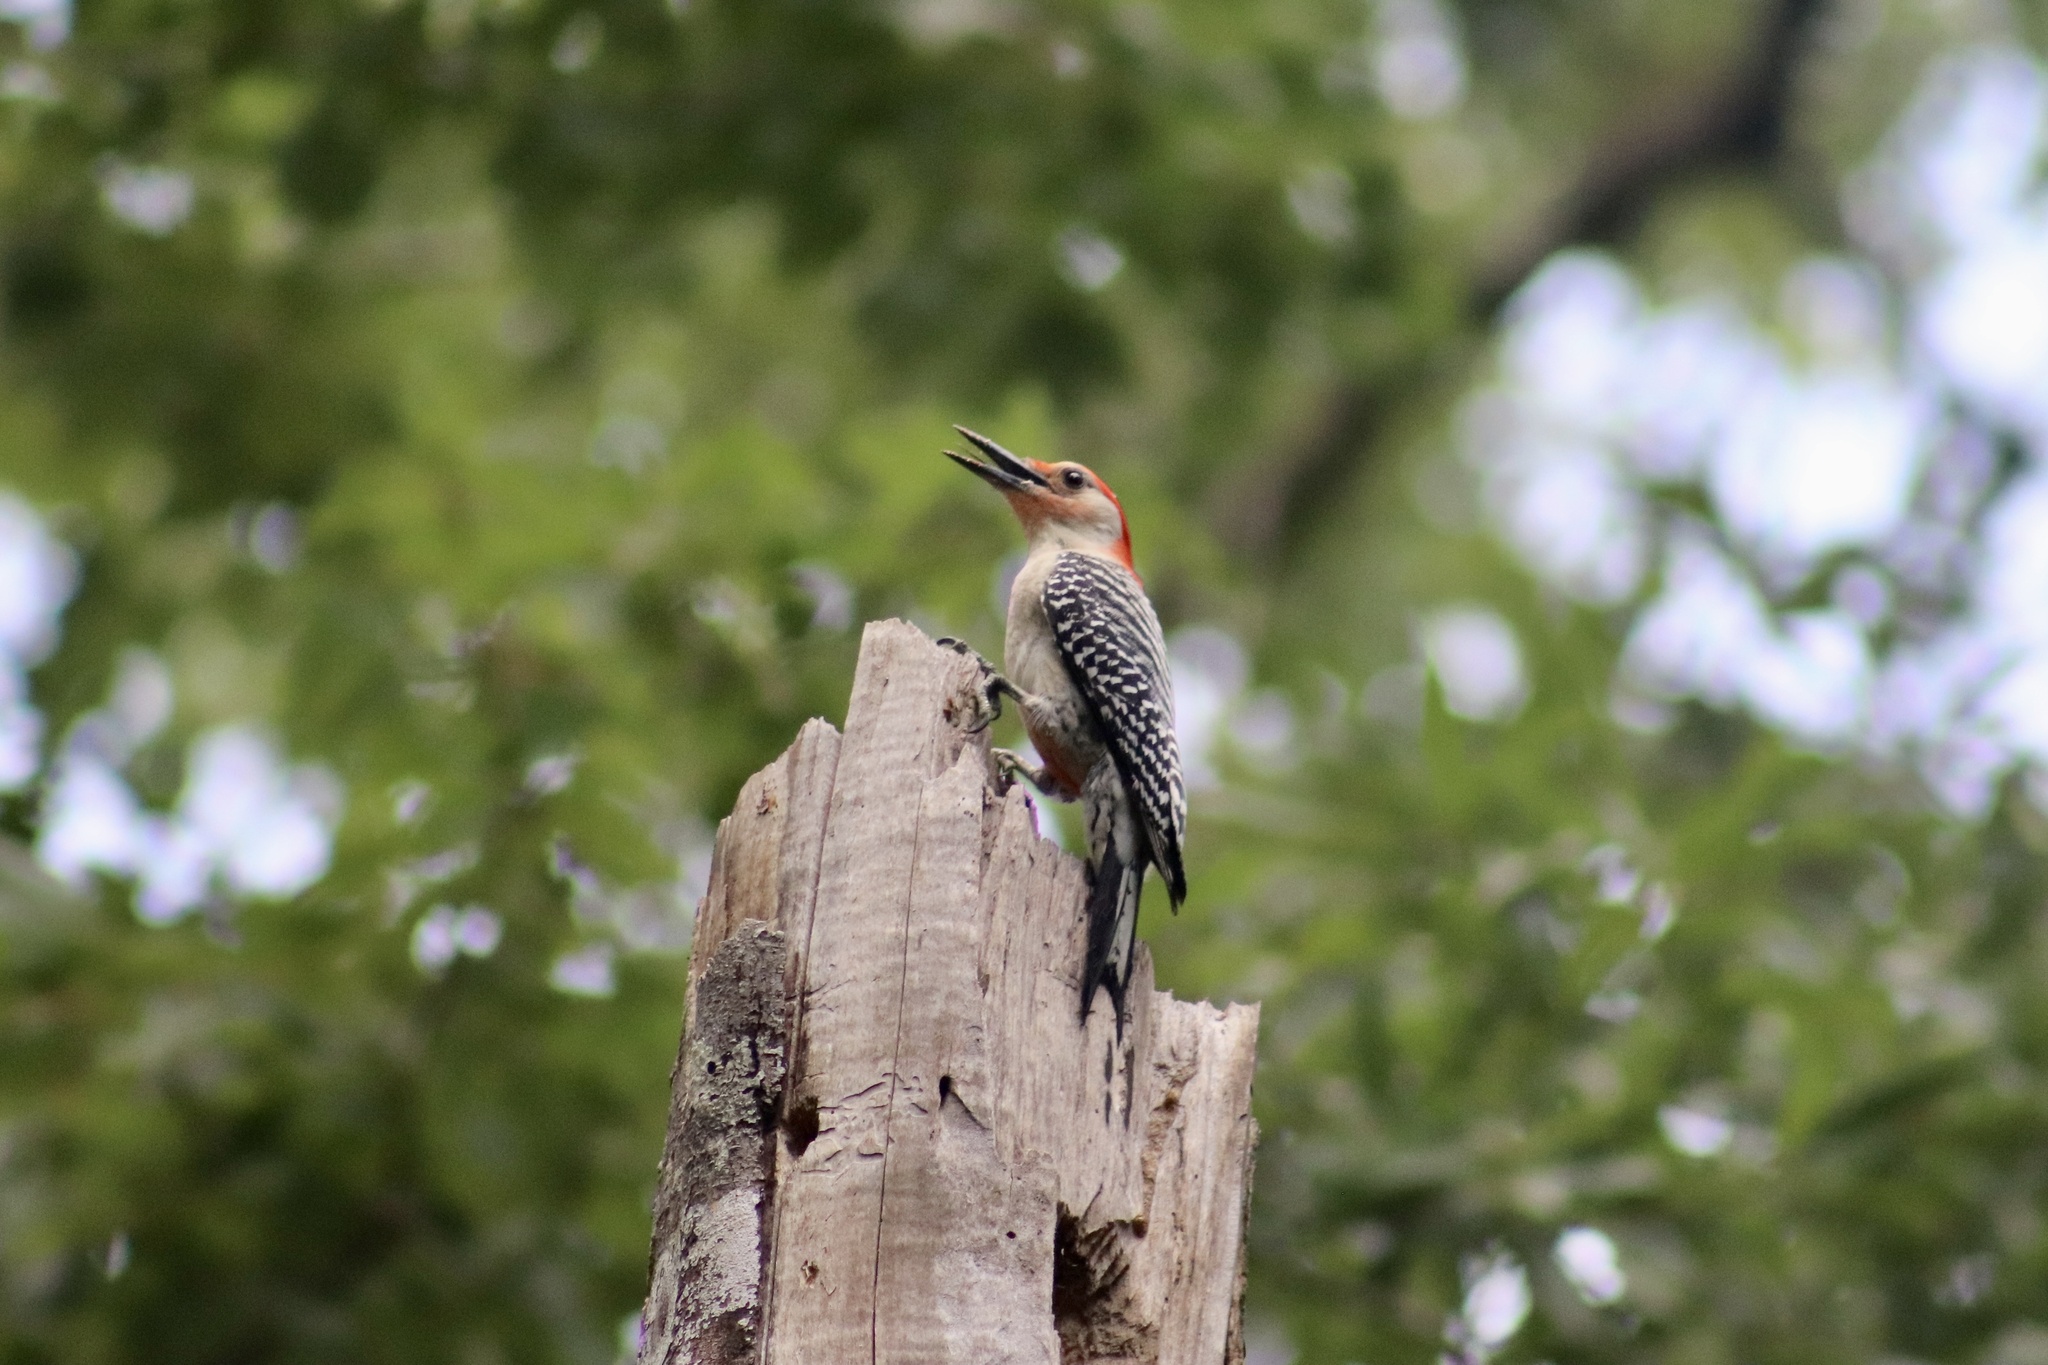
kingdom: Animalia
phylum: Chordata
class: Aves
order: Piciformes
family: Picidae
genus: Melanerpes
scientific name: Melanerpes carolinus
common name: Red-bellied woodpecker
